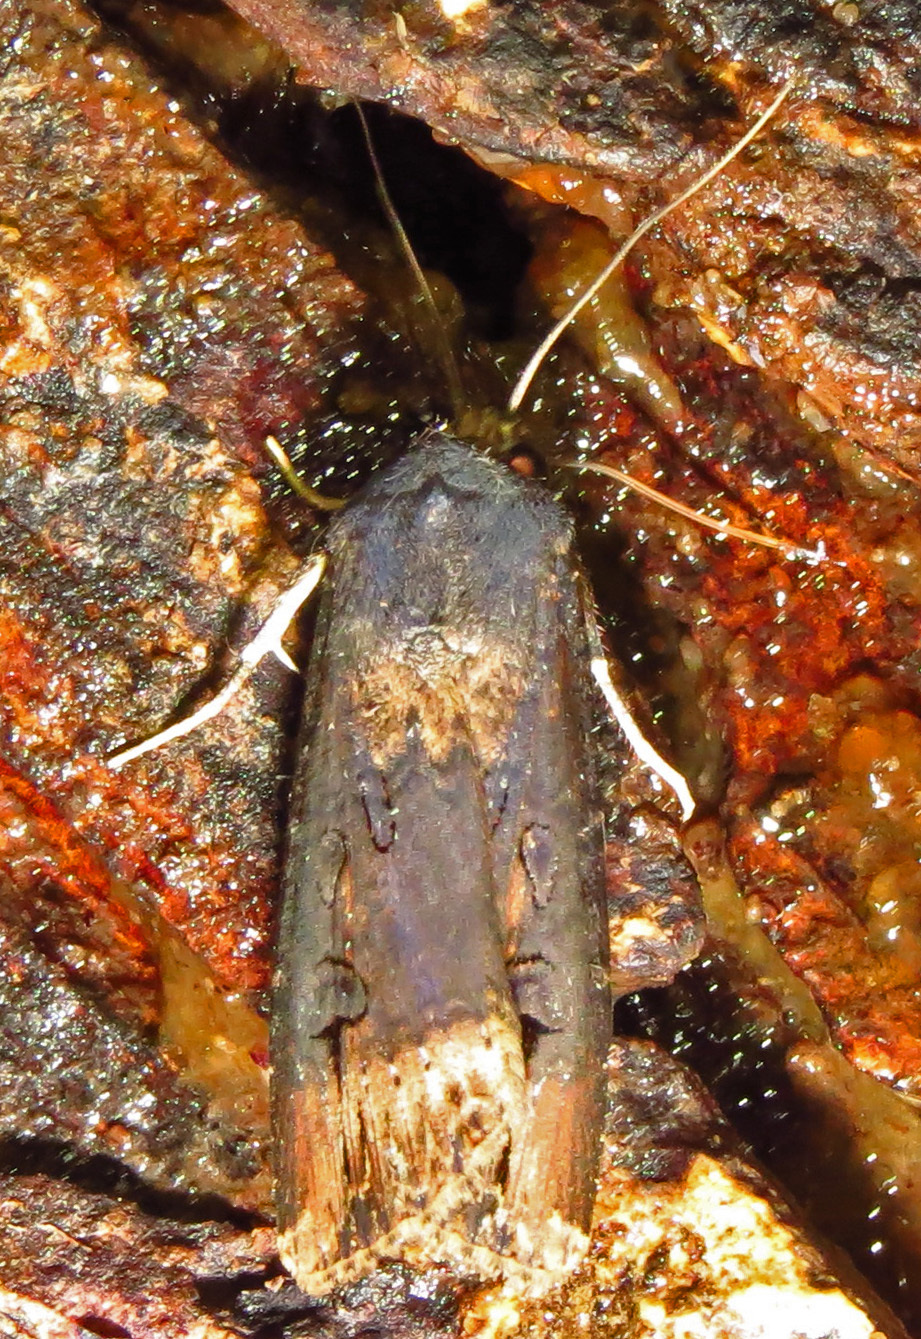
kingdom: Animalia
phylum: Arthropoda
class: Insecta
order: Lepidoptera
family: Noctuidae
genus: Agrotis
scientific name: Agrotis ipsilon
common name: Dark sword-grass
